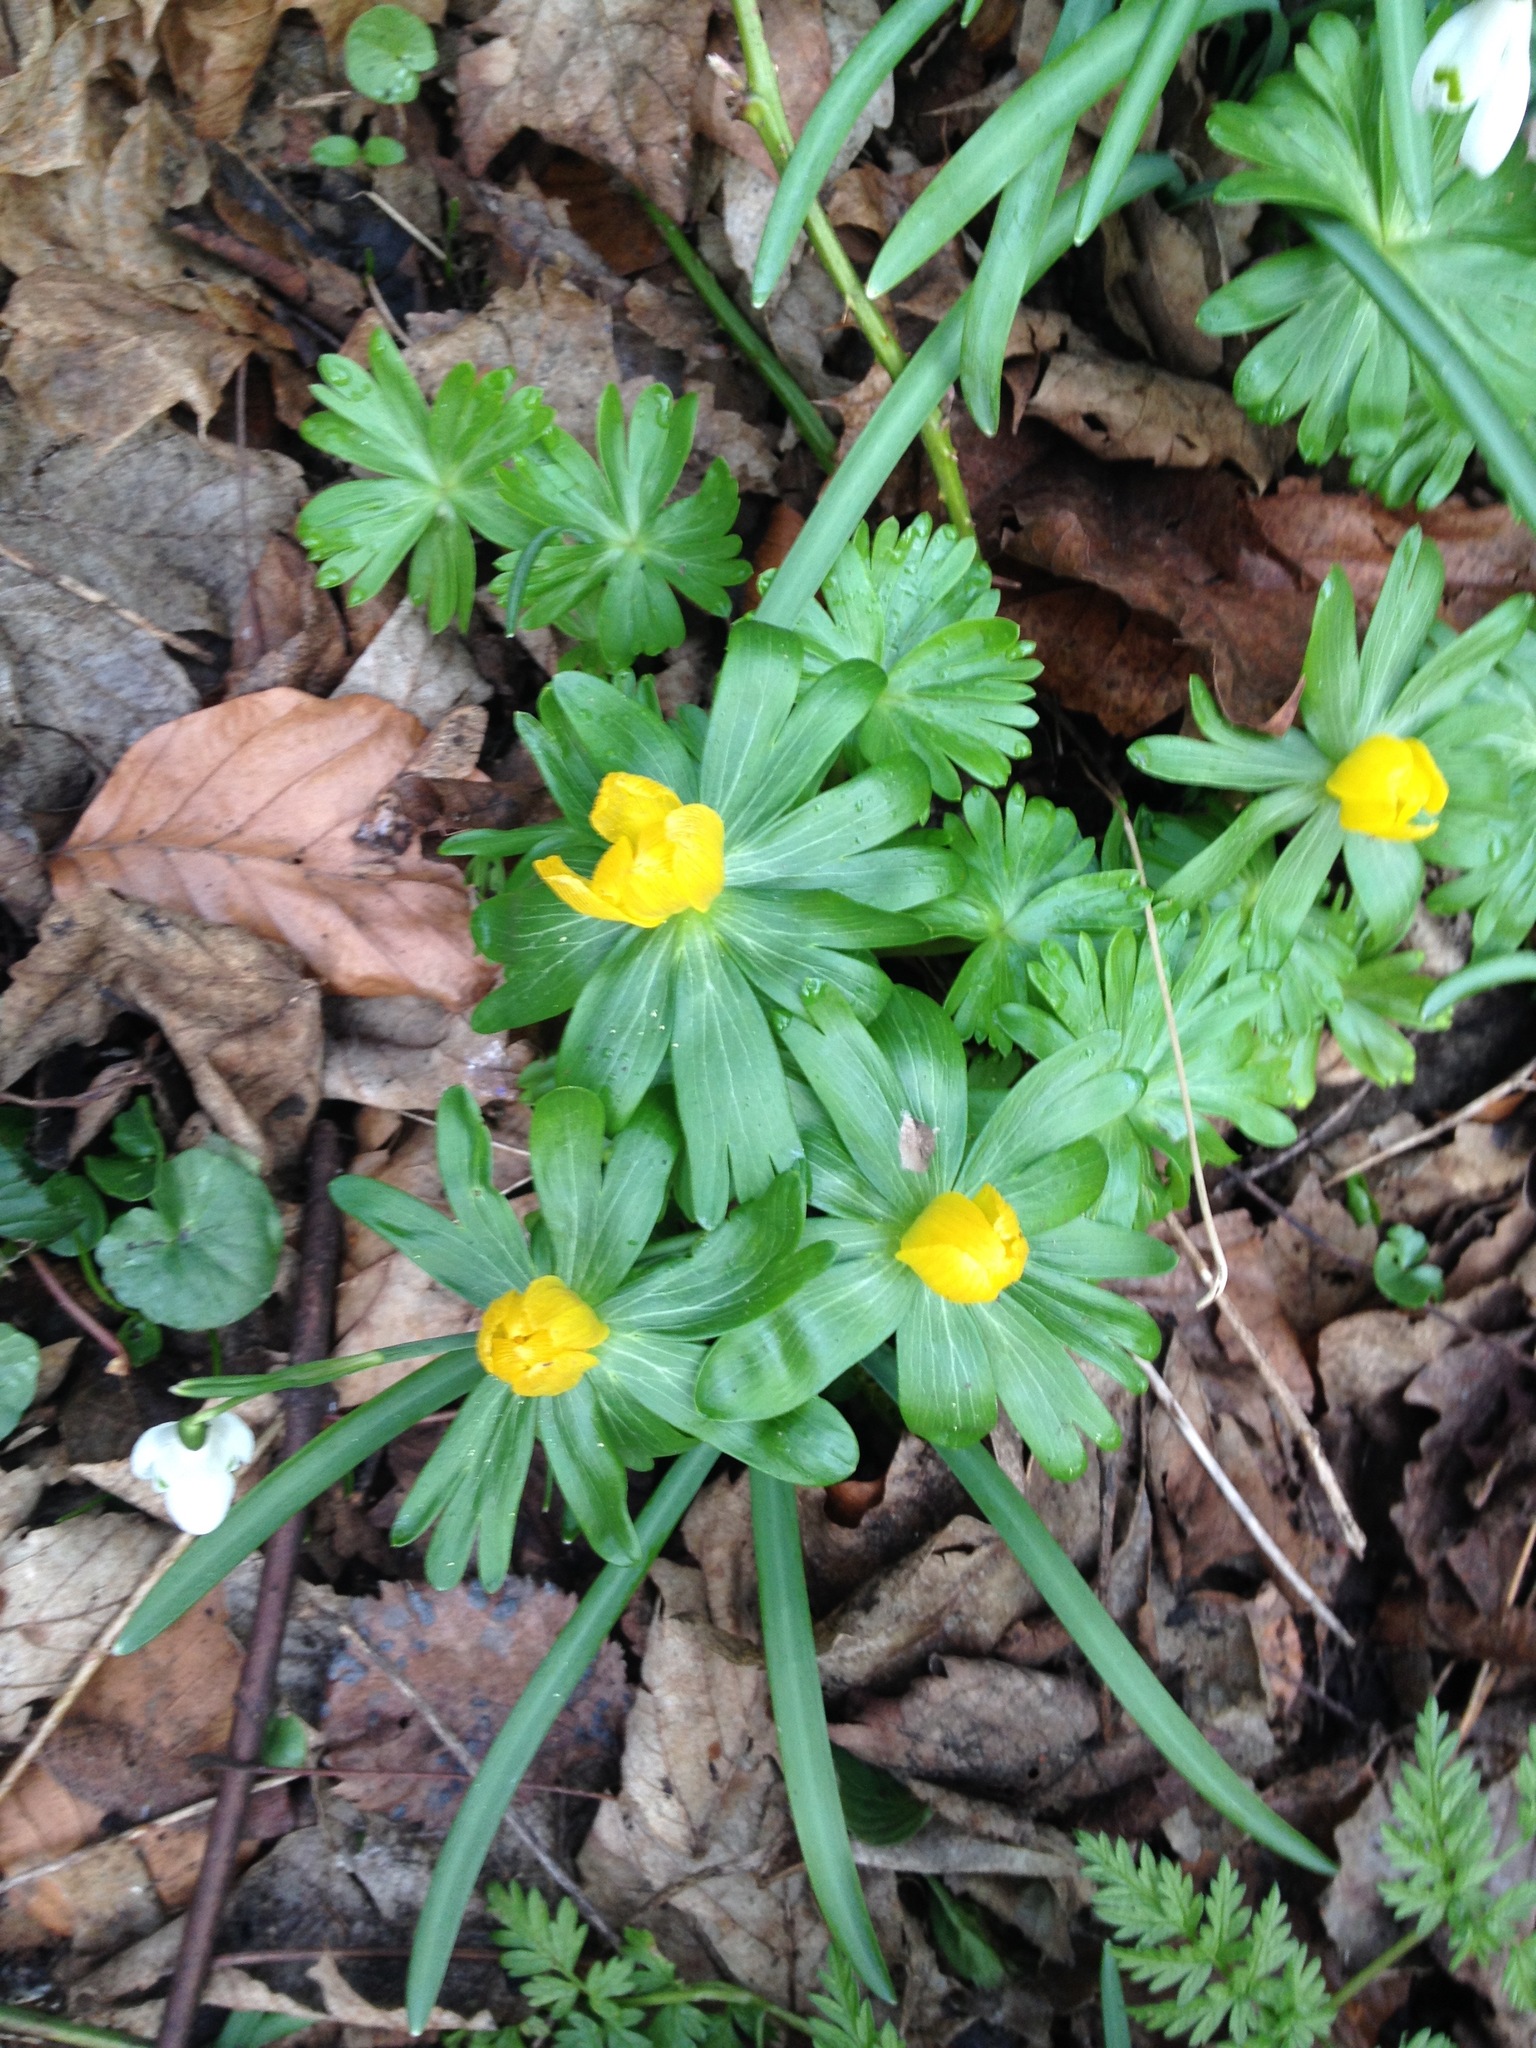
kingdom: Plantae
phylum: Tracheophyta
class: Magnoliopsida
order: Ranunculales
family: Ranunculaceae
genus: Eranthis
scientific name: Eranthis hyemalis
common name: Winter aconite
